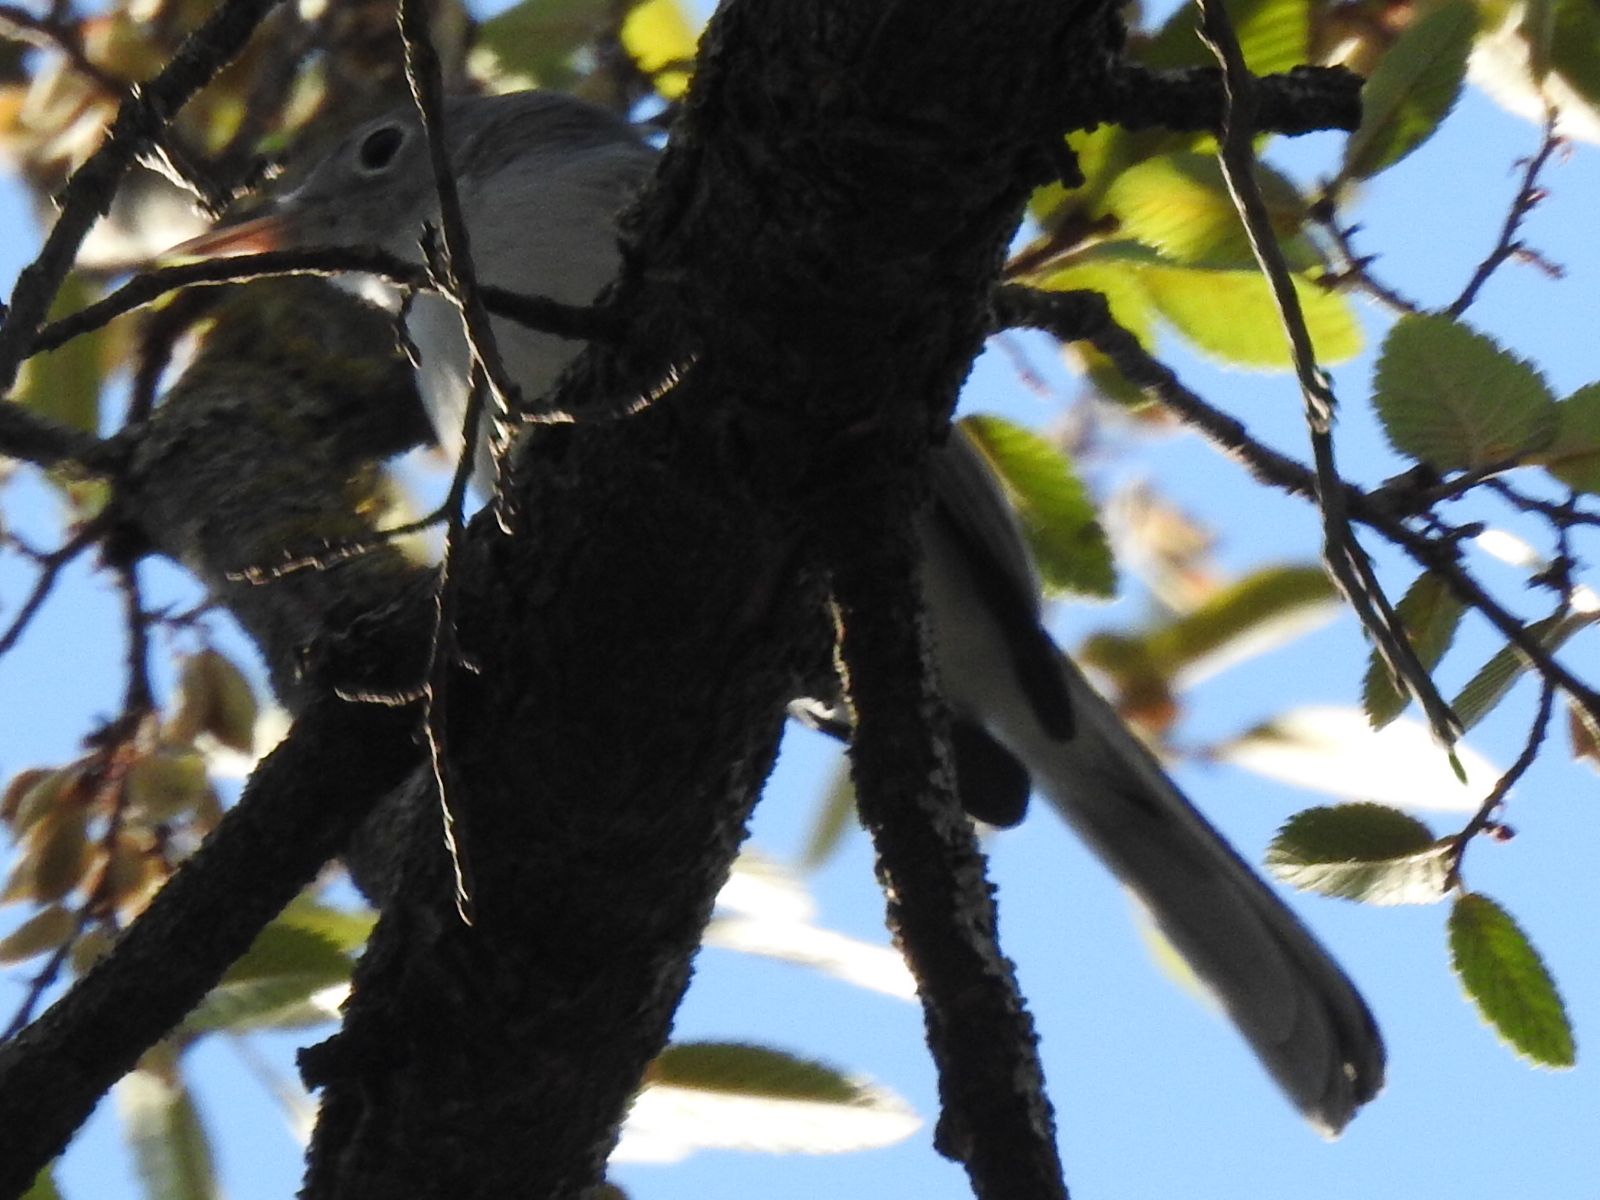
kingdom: Animalia
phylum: Chordata
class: Aves
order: Passeriformes
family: Polioptilidae
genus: Polioptila
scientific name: Polioptila caerulea
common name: Blue-gray gnatcatcher
